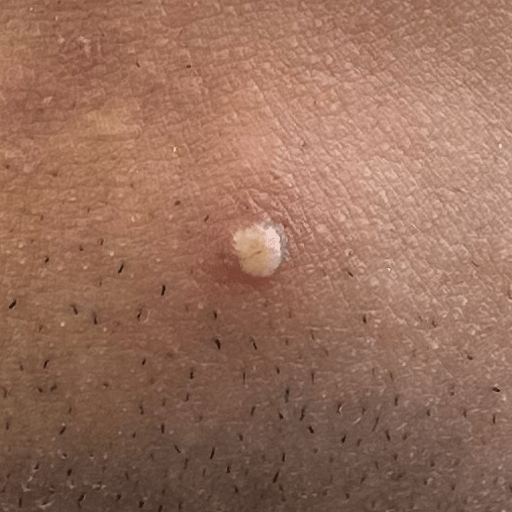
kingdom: Bacteria
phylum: Actinobacteriota
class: Actinomycetia
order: Propionibacteriales
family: Propionibacteriaceae
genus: Cutibacterium
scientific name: Cutibacterium acnes
